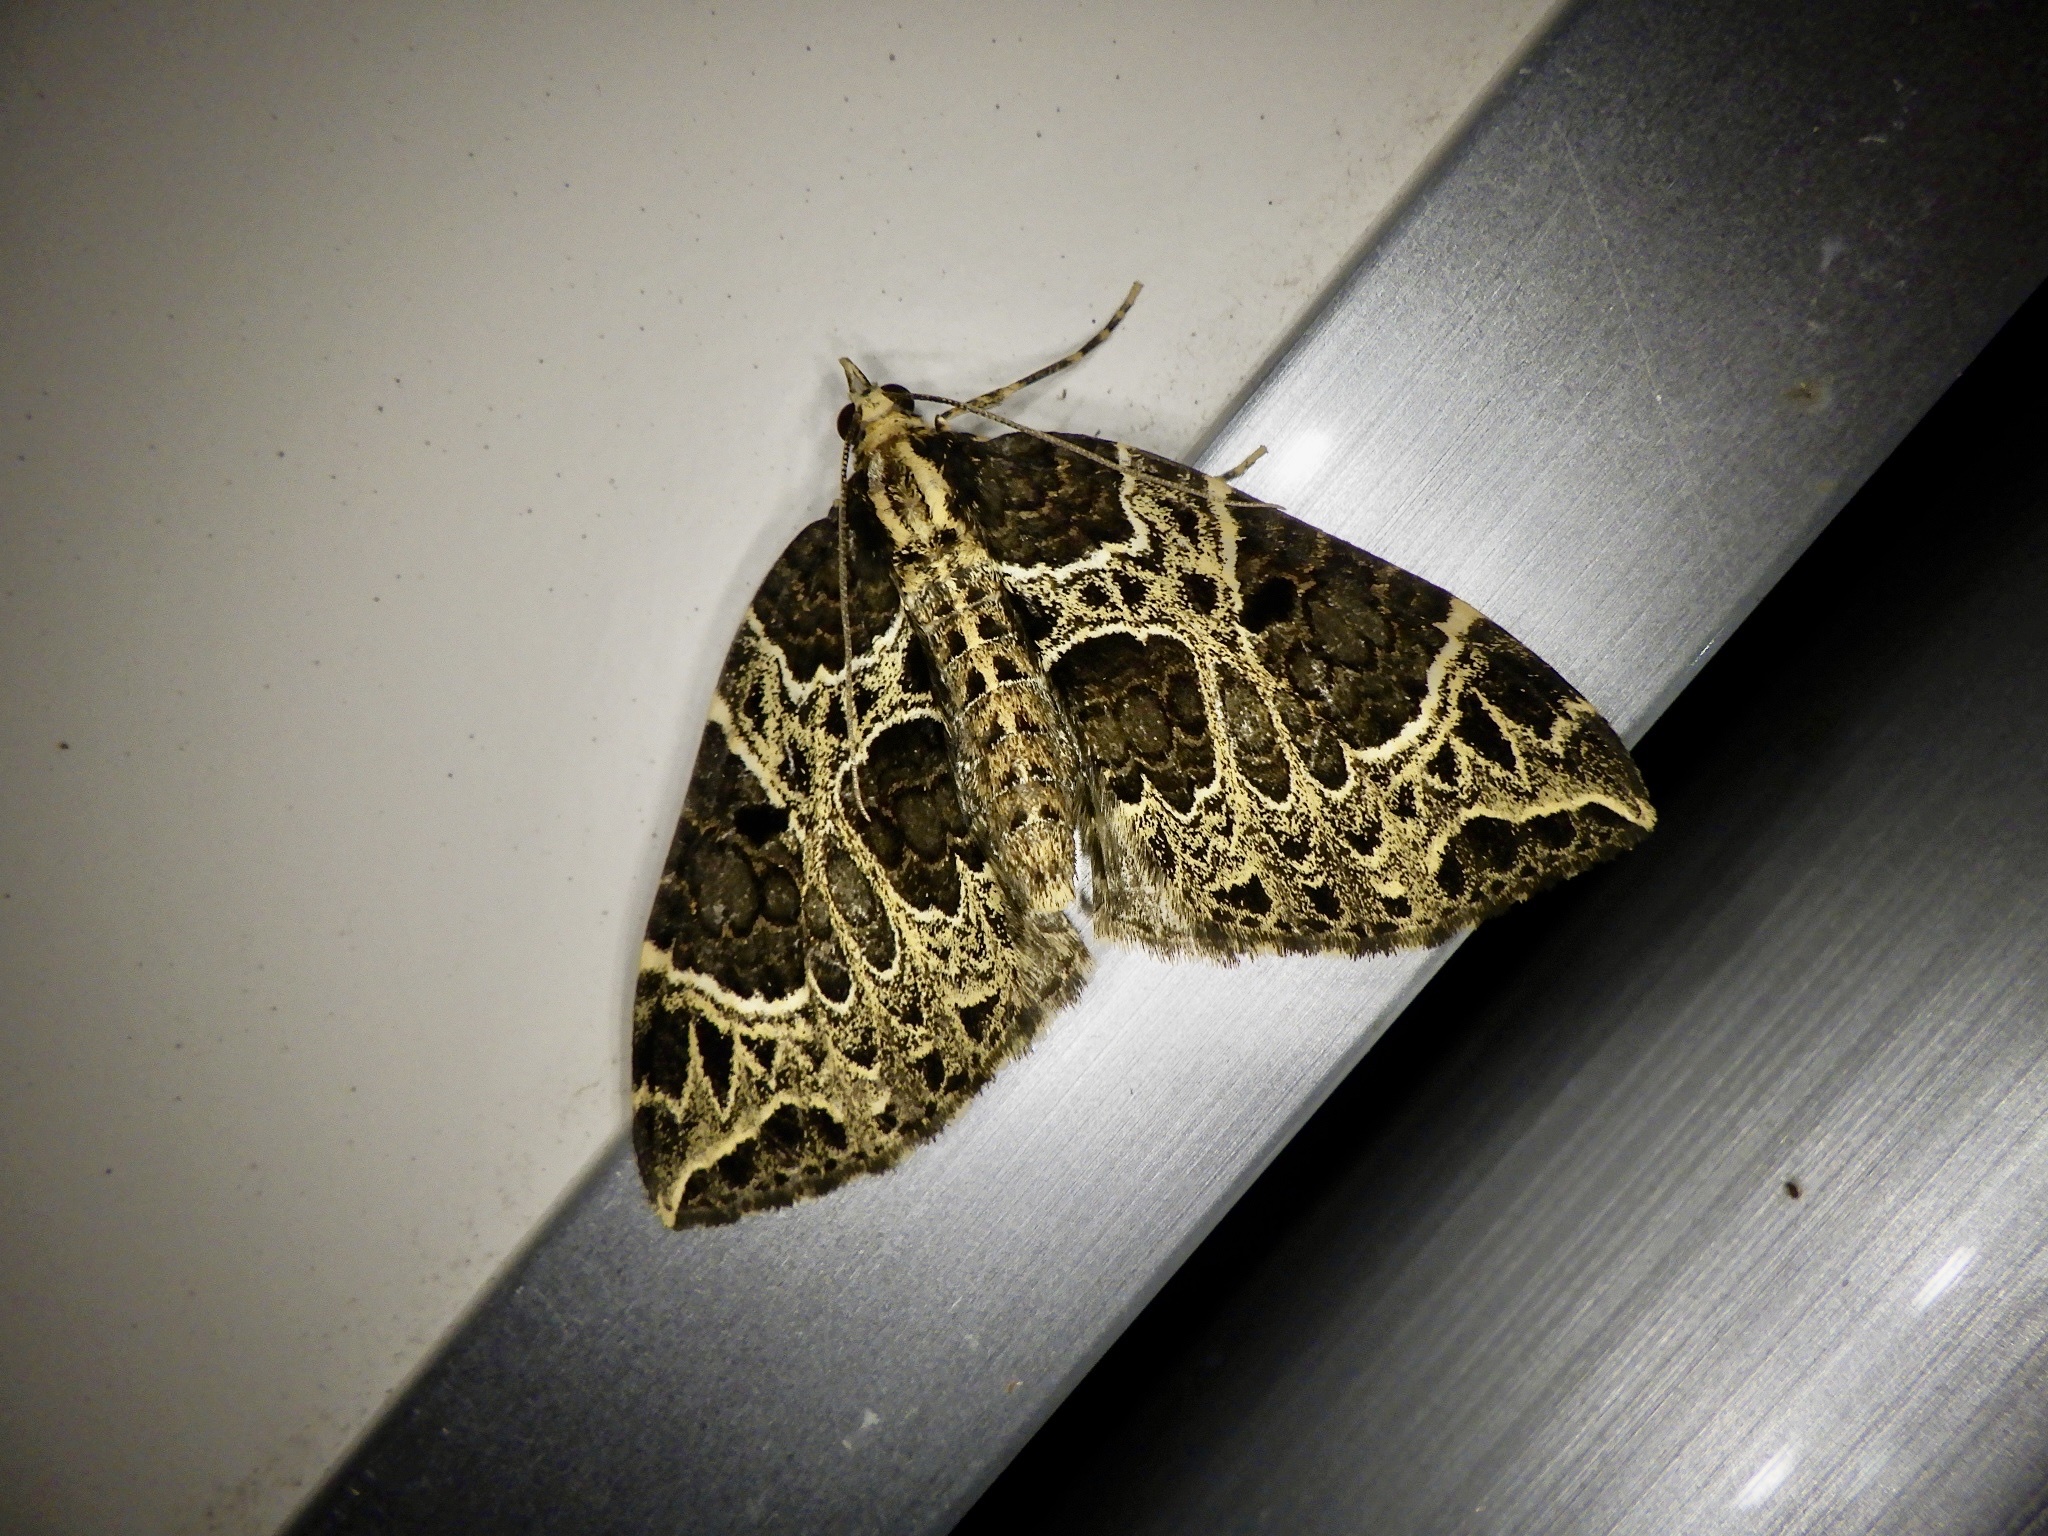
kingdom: Animalia
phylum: Arthropoda
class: Insecta
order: Lepidoptera
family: Geometridae
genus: Eustroma
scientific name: Eustroma melancholica
